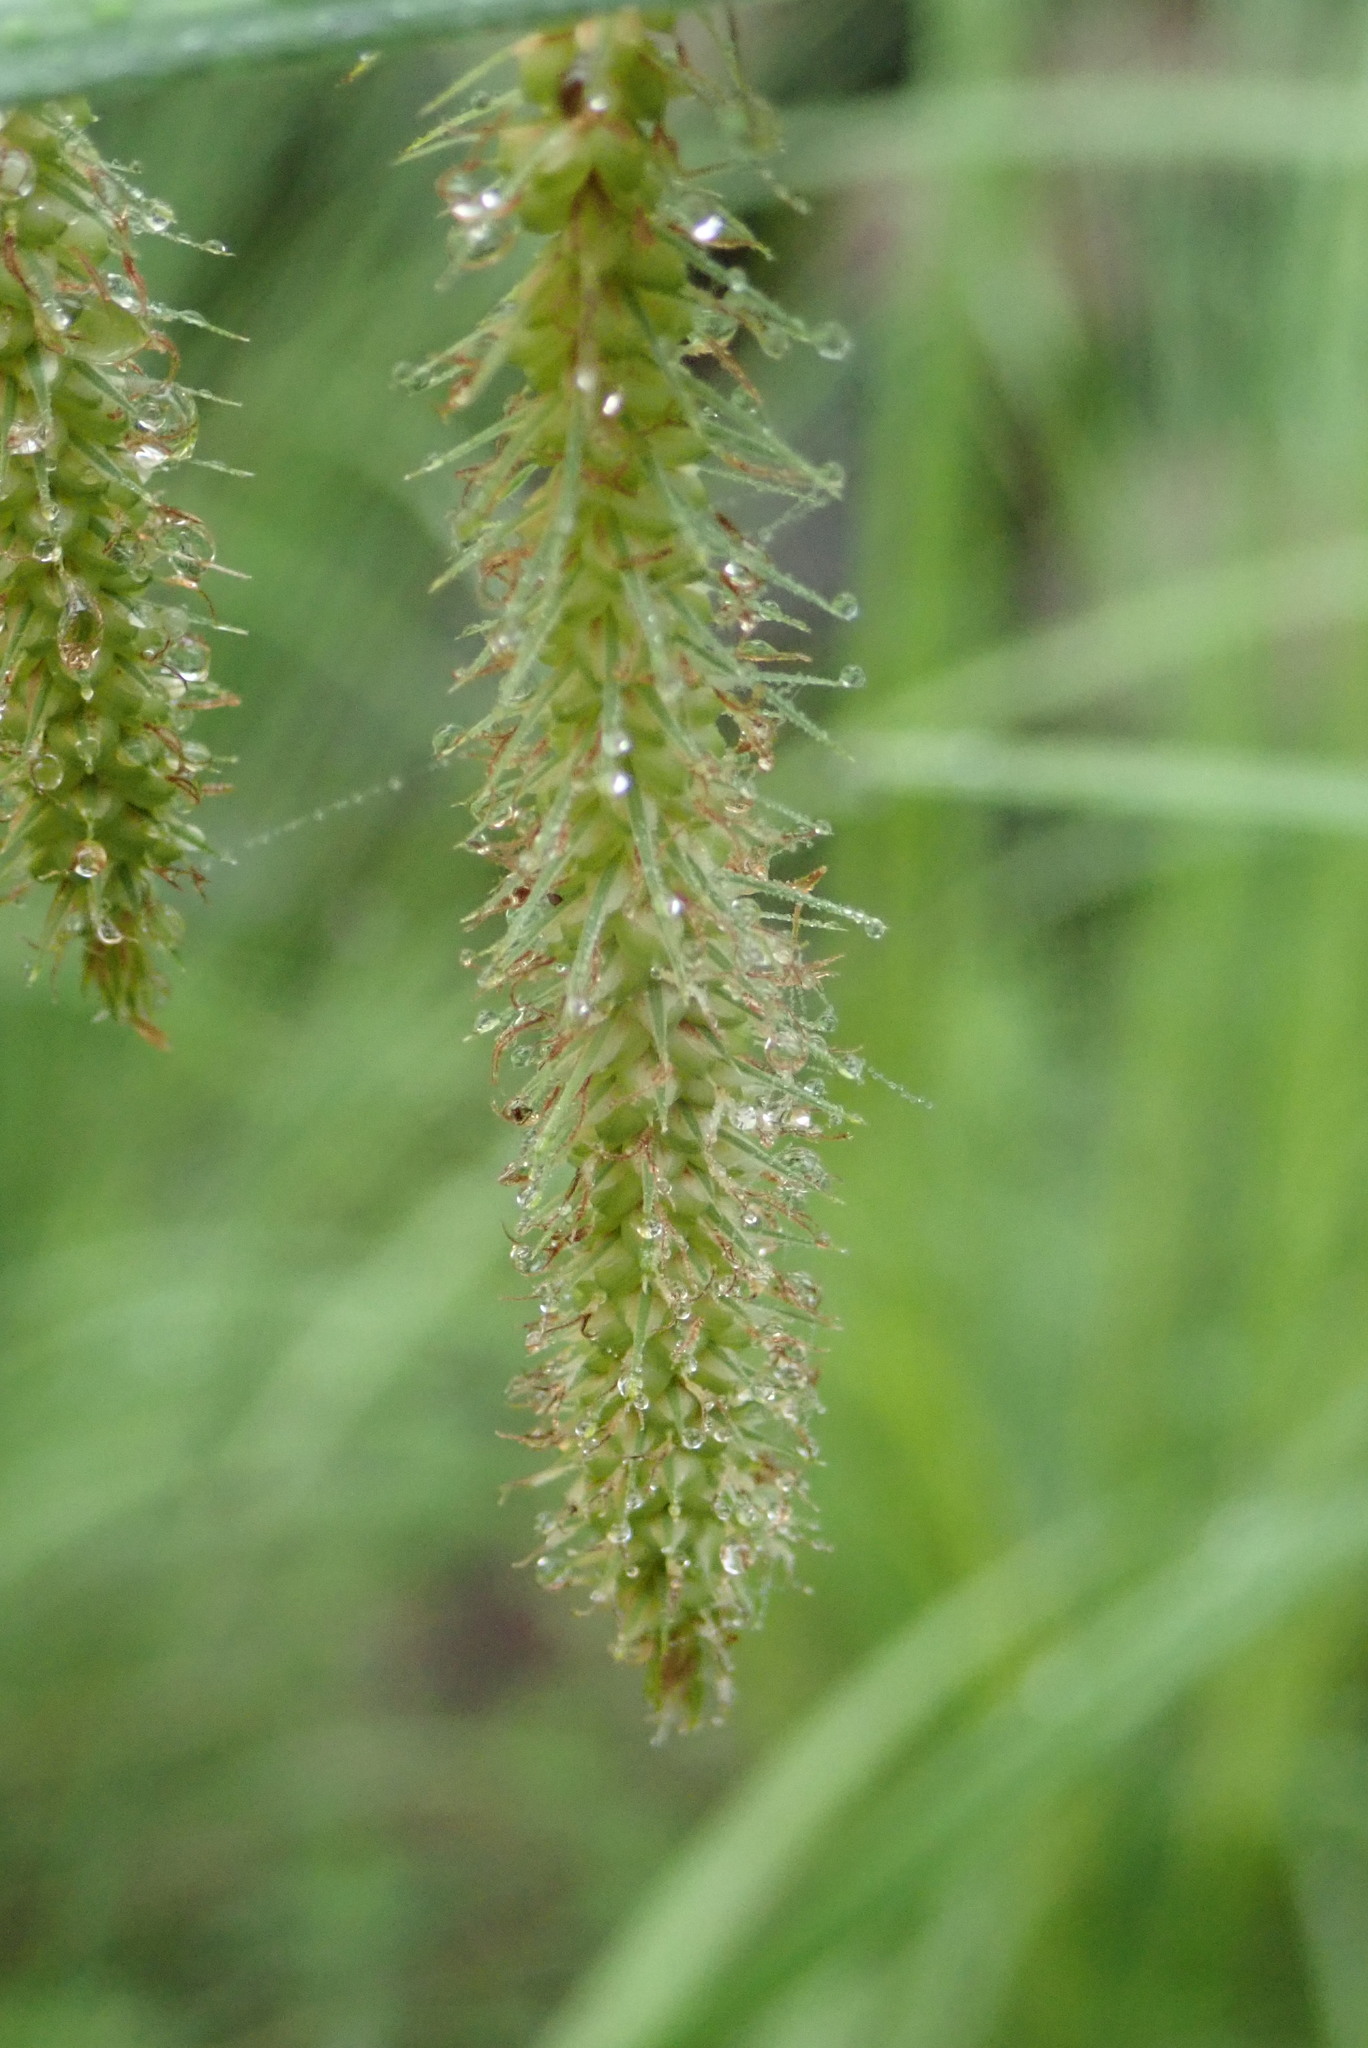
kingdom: Plantae
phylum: Tracheophyta
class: Liliopsida
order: Poales
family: Cyperaceae
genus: Carex
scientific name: Carex gynandra
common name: Nodding sedge
